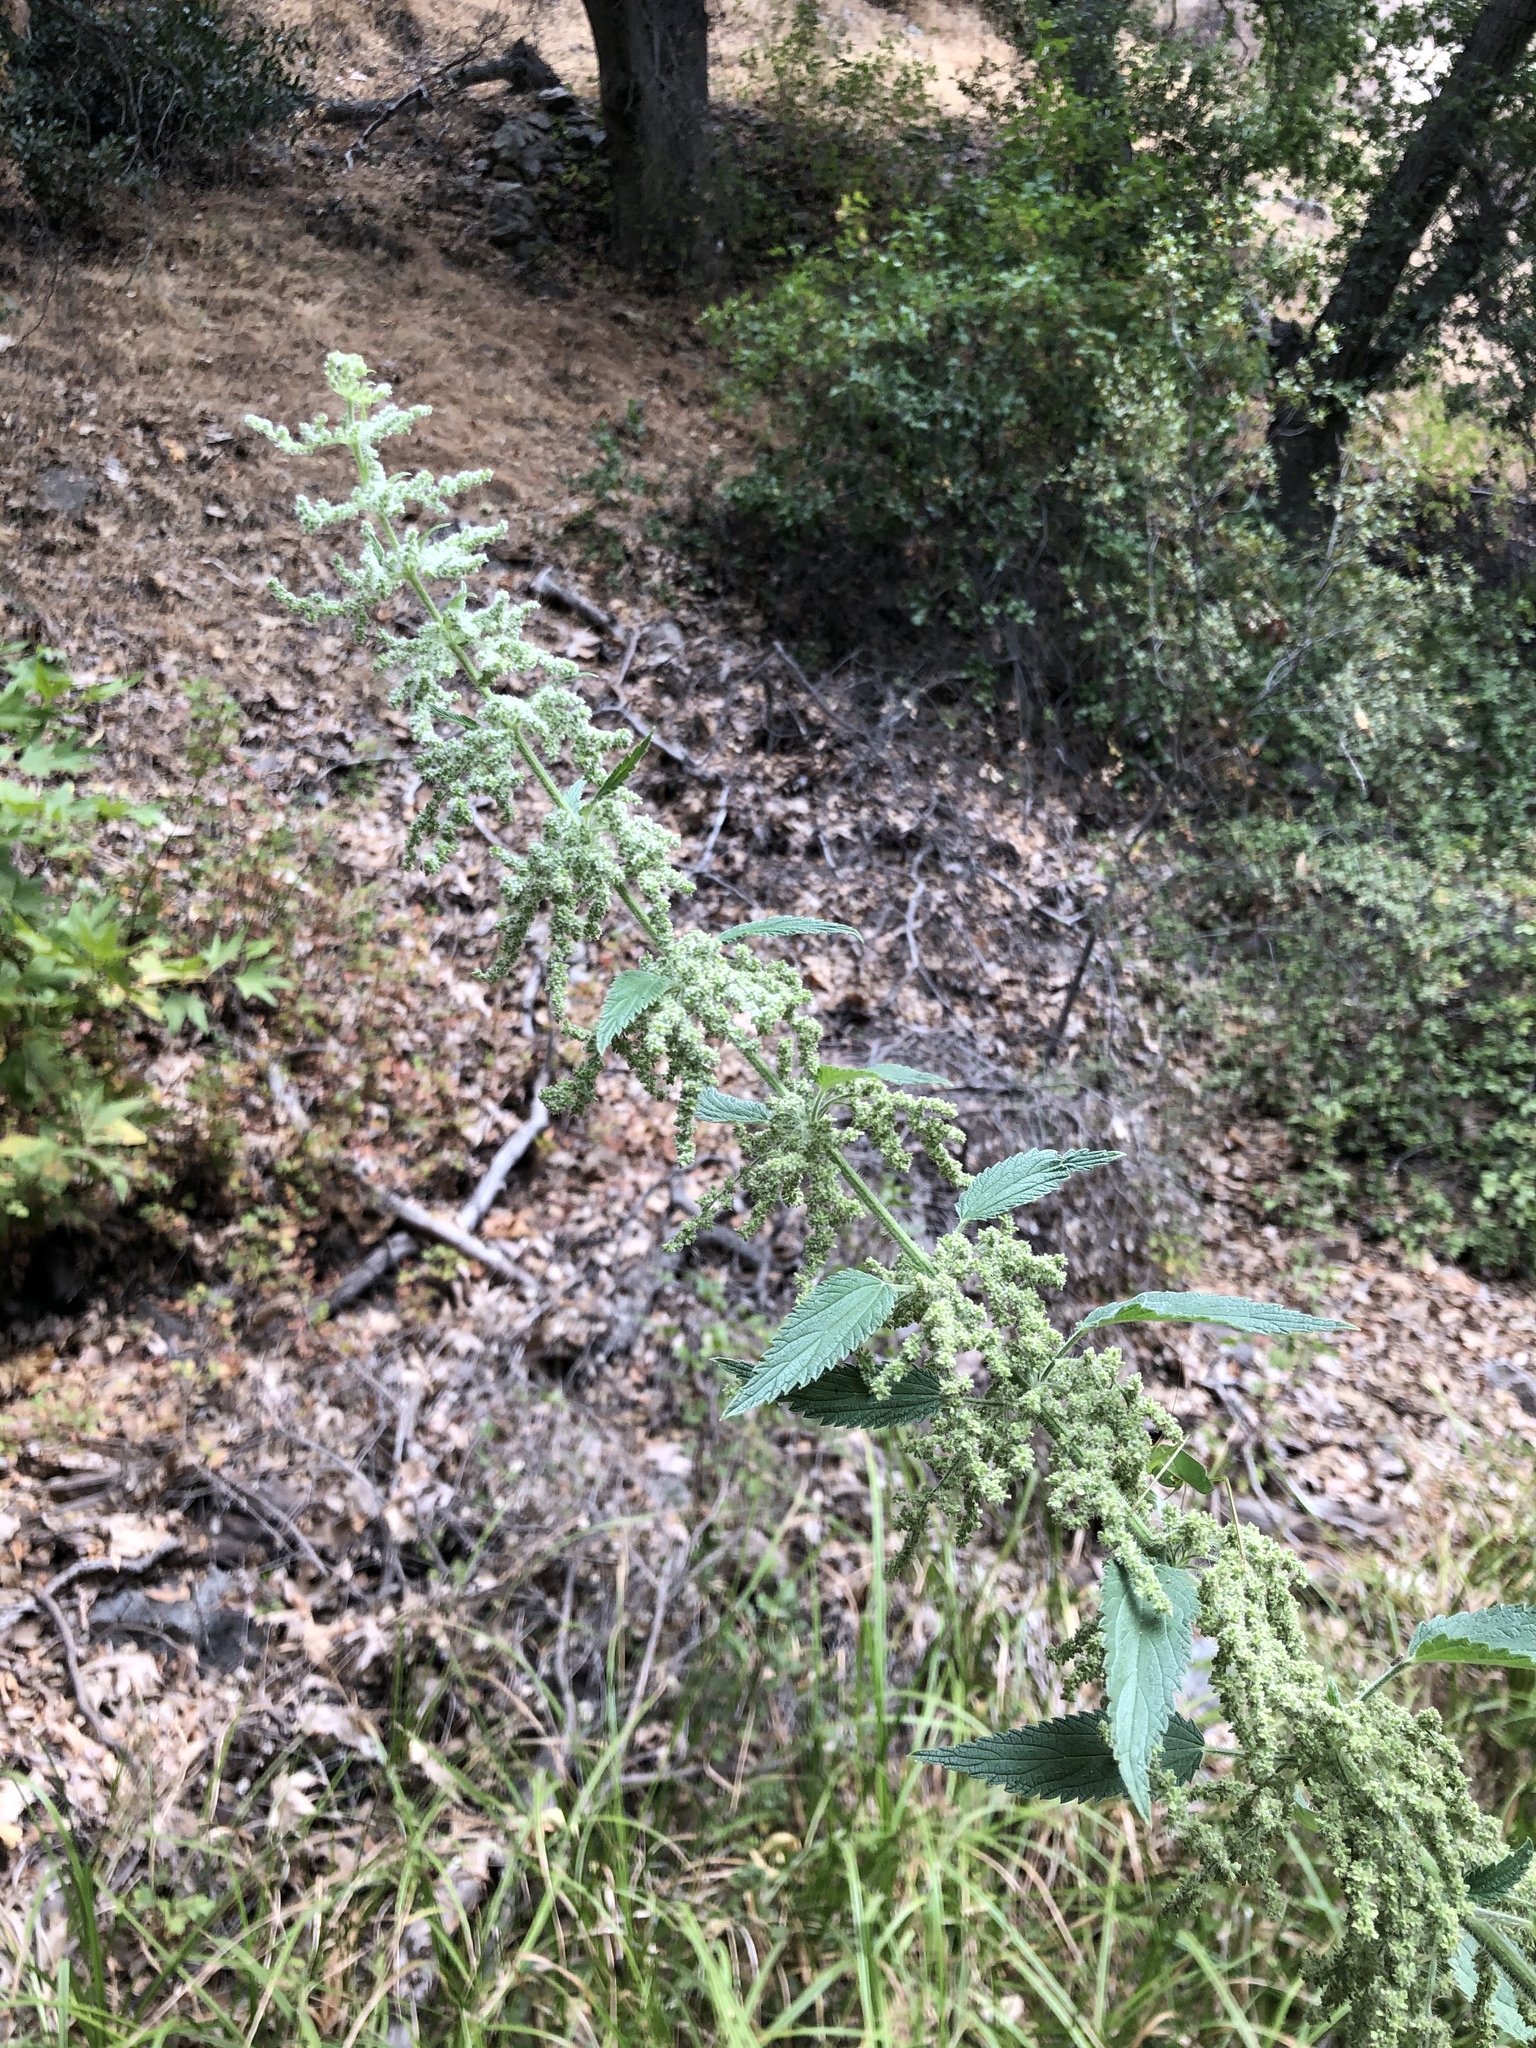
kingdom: Plantae
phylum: Tracheophyta
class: Magnoliopsida
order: Rosales
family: Urticaceae
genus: Urtica
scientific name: Urtica dioica
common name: Common nettle
